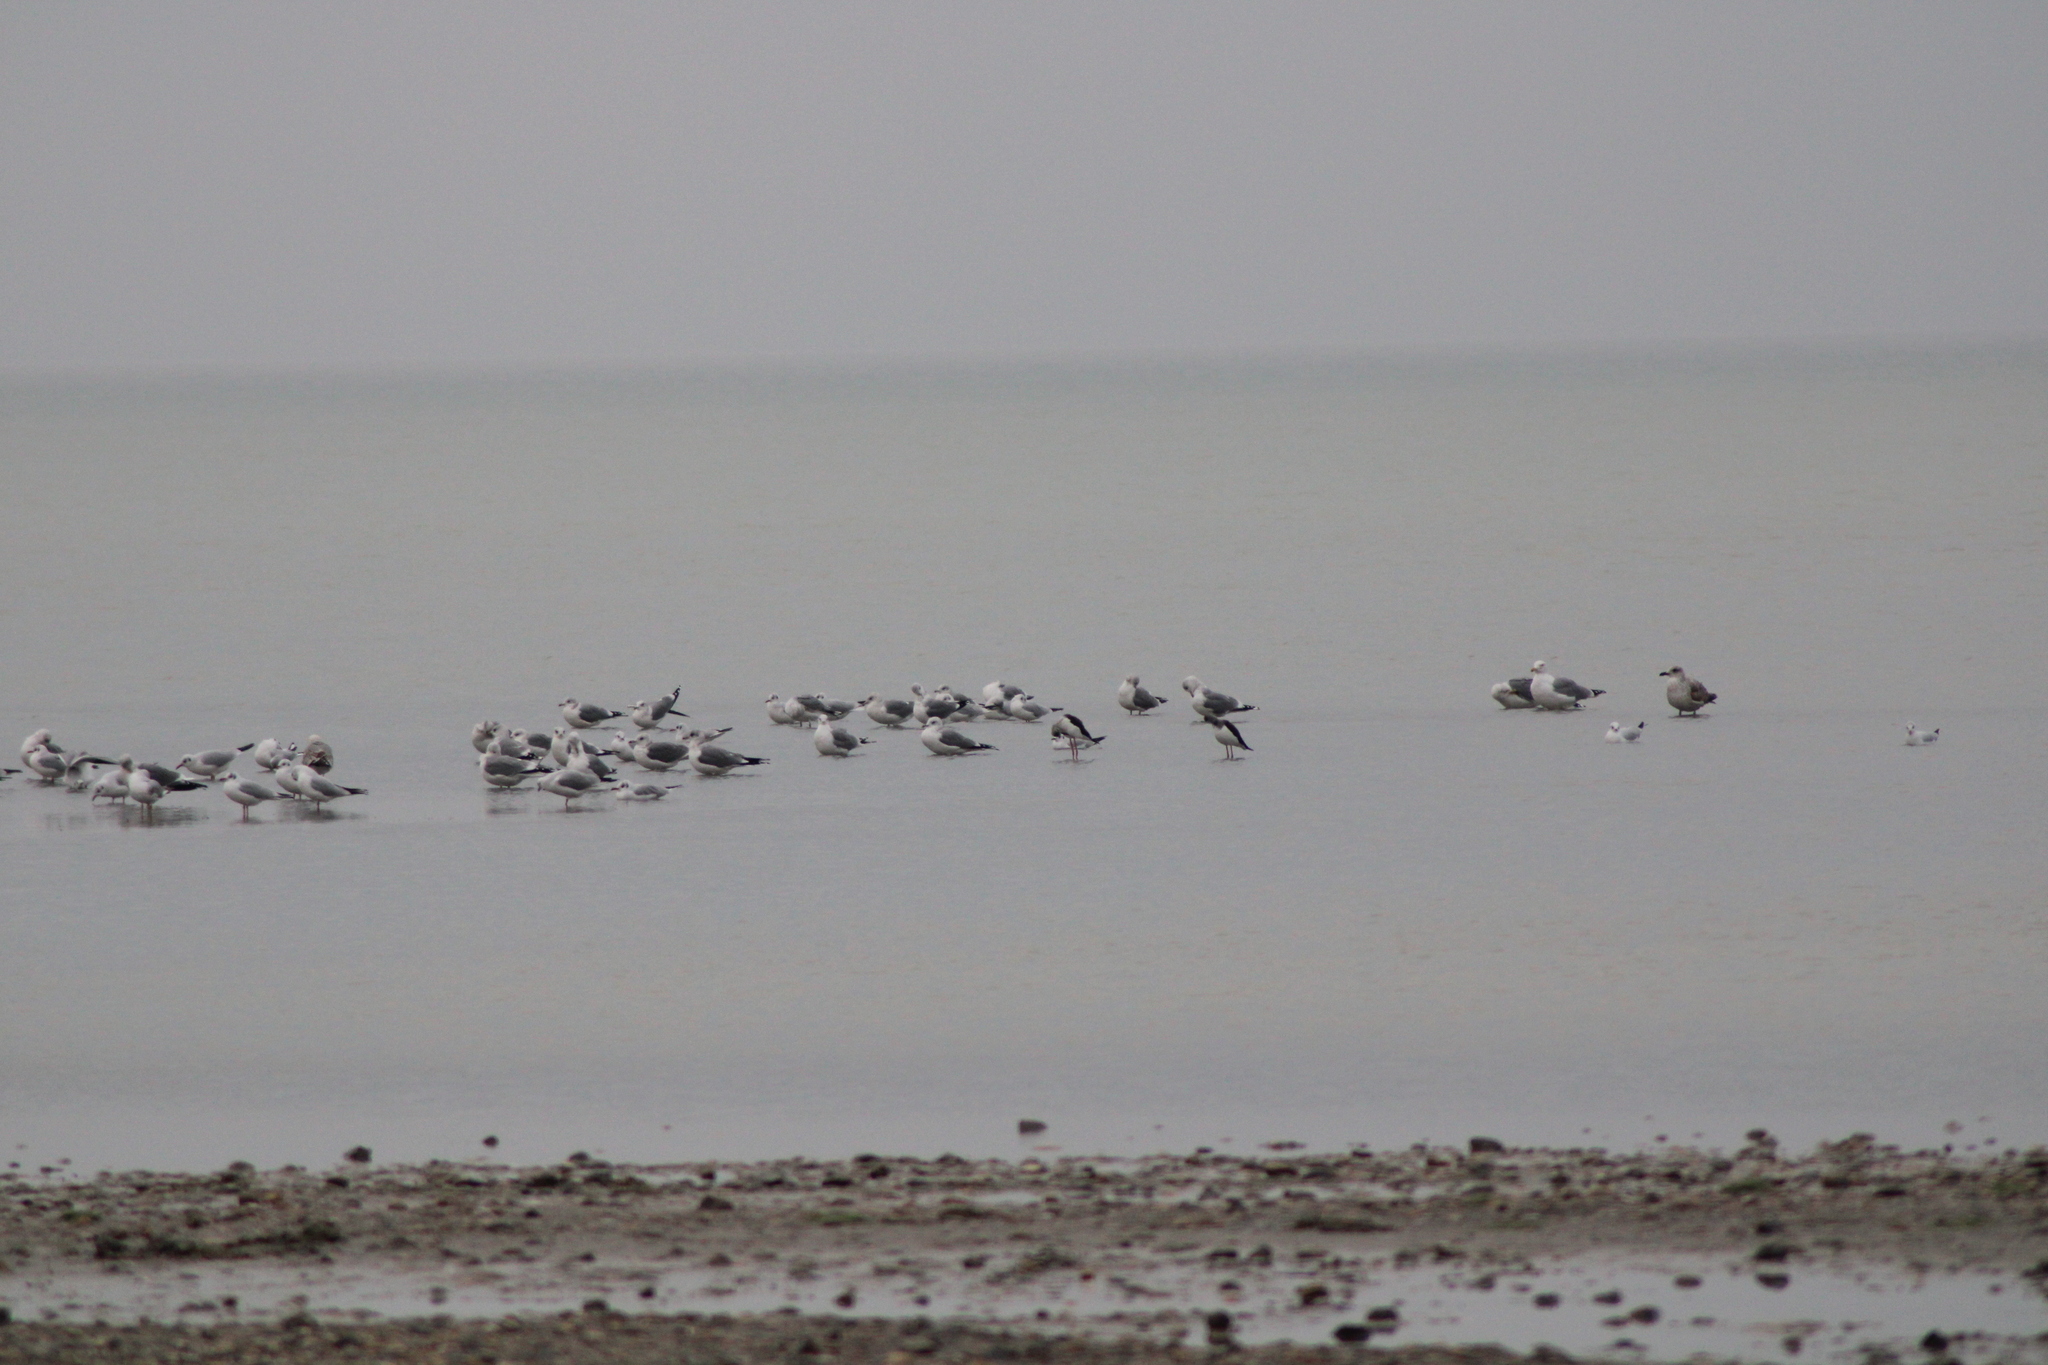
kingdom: Animalia
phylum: Chordata
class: Aves
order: Charadriiformes
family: Laridae
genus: Chroicocephalus
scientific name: Chroicocephalus ridibundus
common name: Black-headed gull
